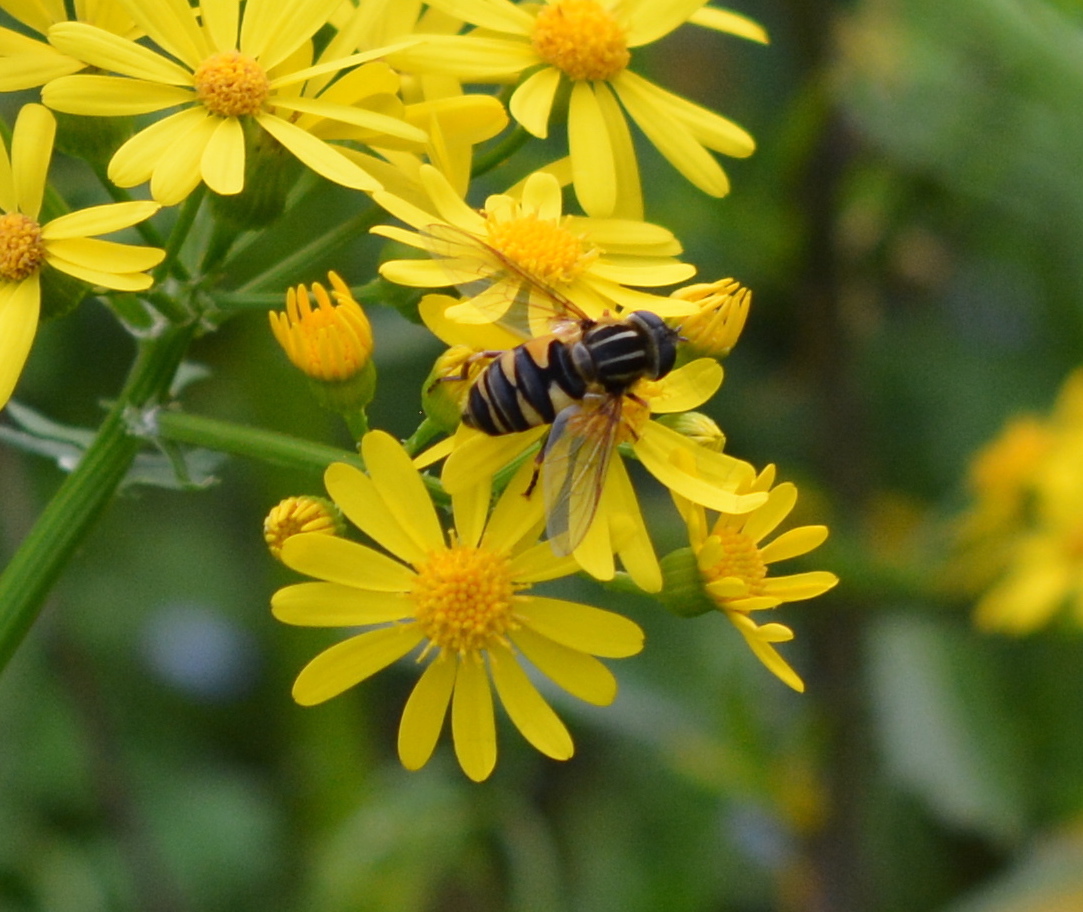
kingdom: Animalia
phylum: Arthropoda
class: Insecta
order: Diptera
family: Syrphidae
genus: Helophilus
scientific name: Helophilus fasciatus
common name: Narrow-headed marsh fly
